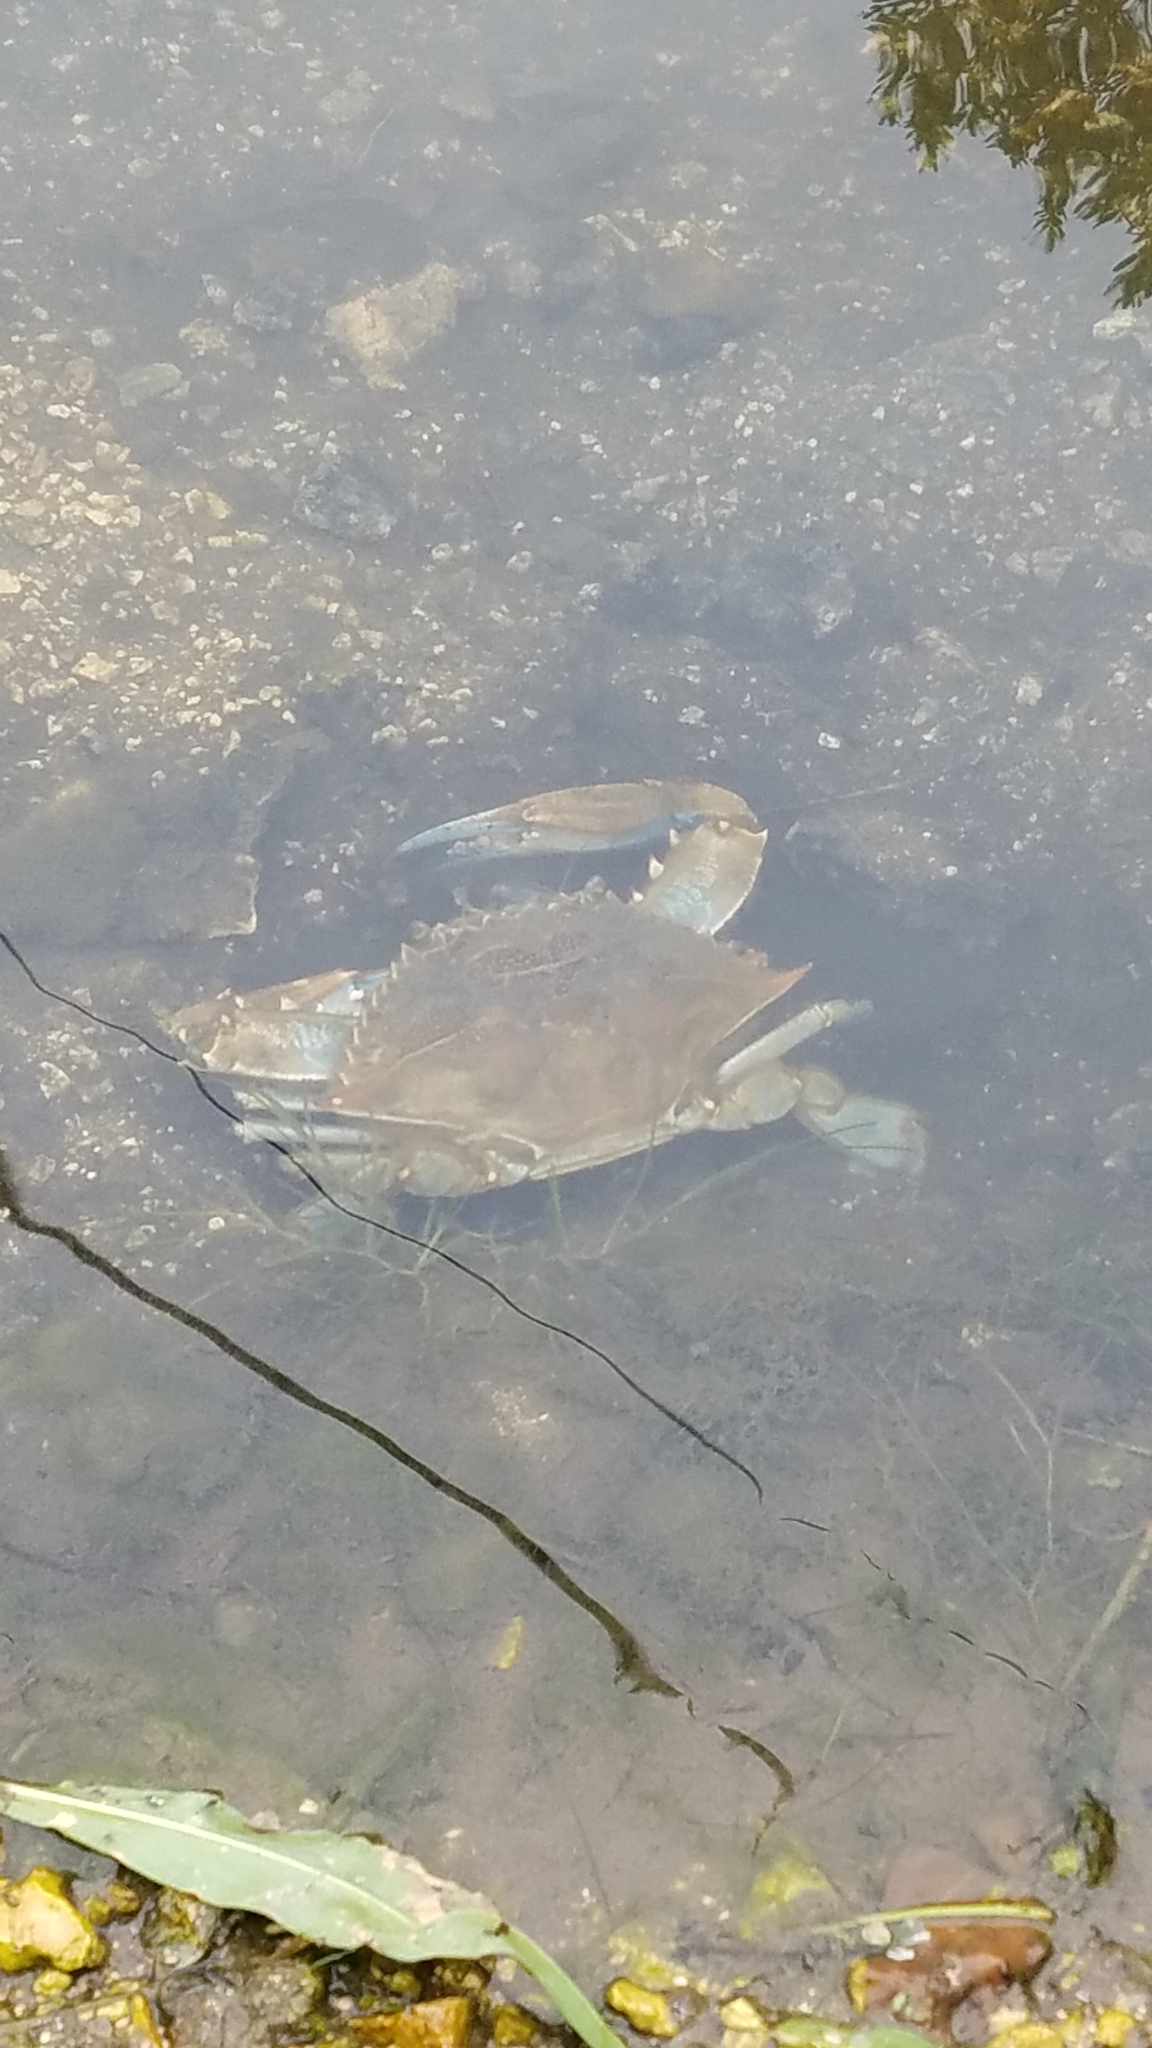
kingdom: Animalia
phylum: Arthropoda
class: Malacostraca
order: Decapoda
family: Portunidae
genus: Callinectes
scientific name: Callinectes sapidus
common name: Blue crab
